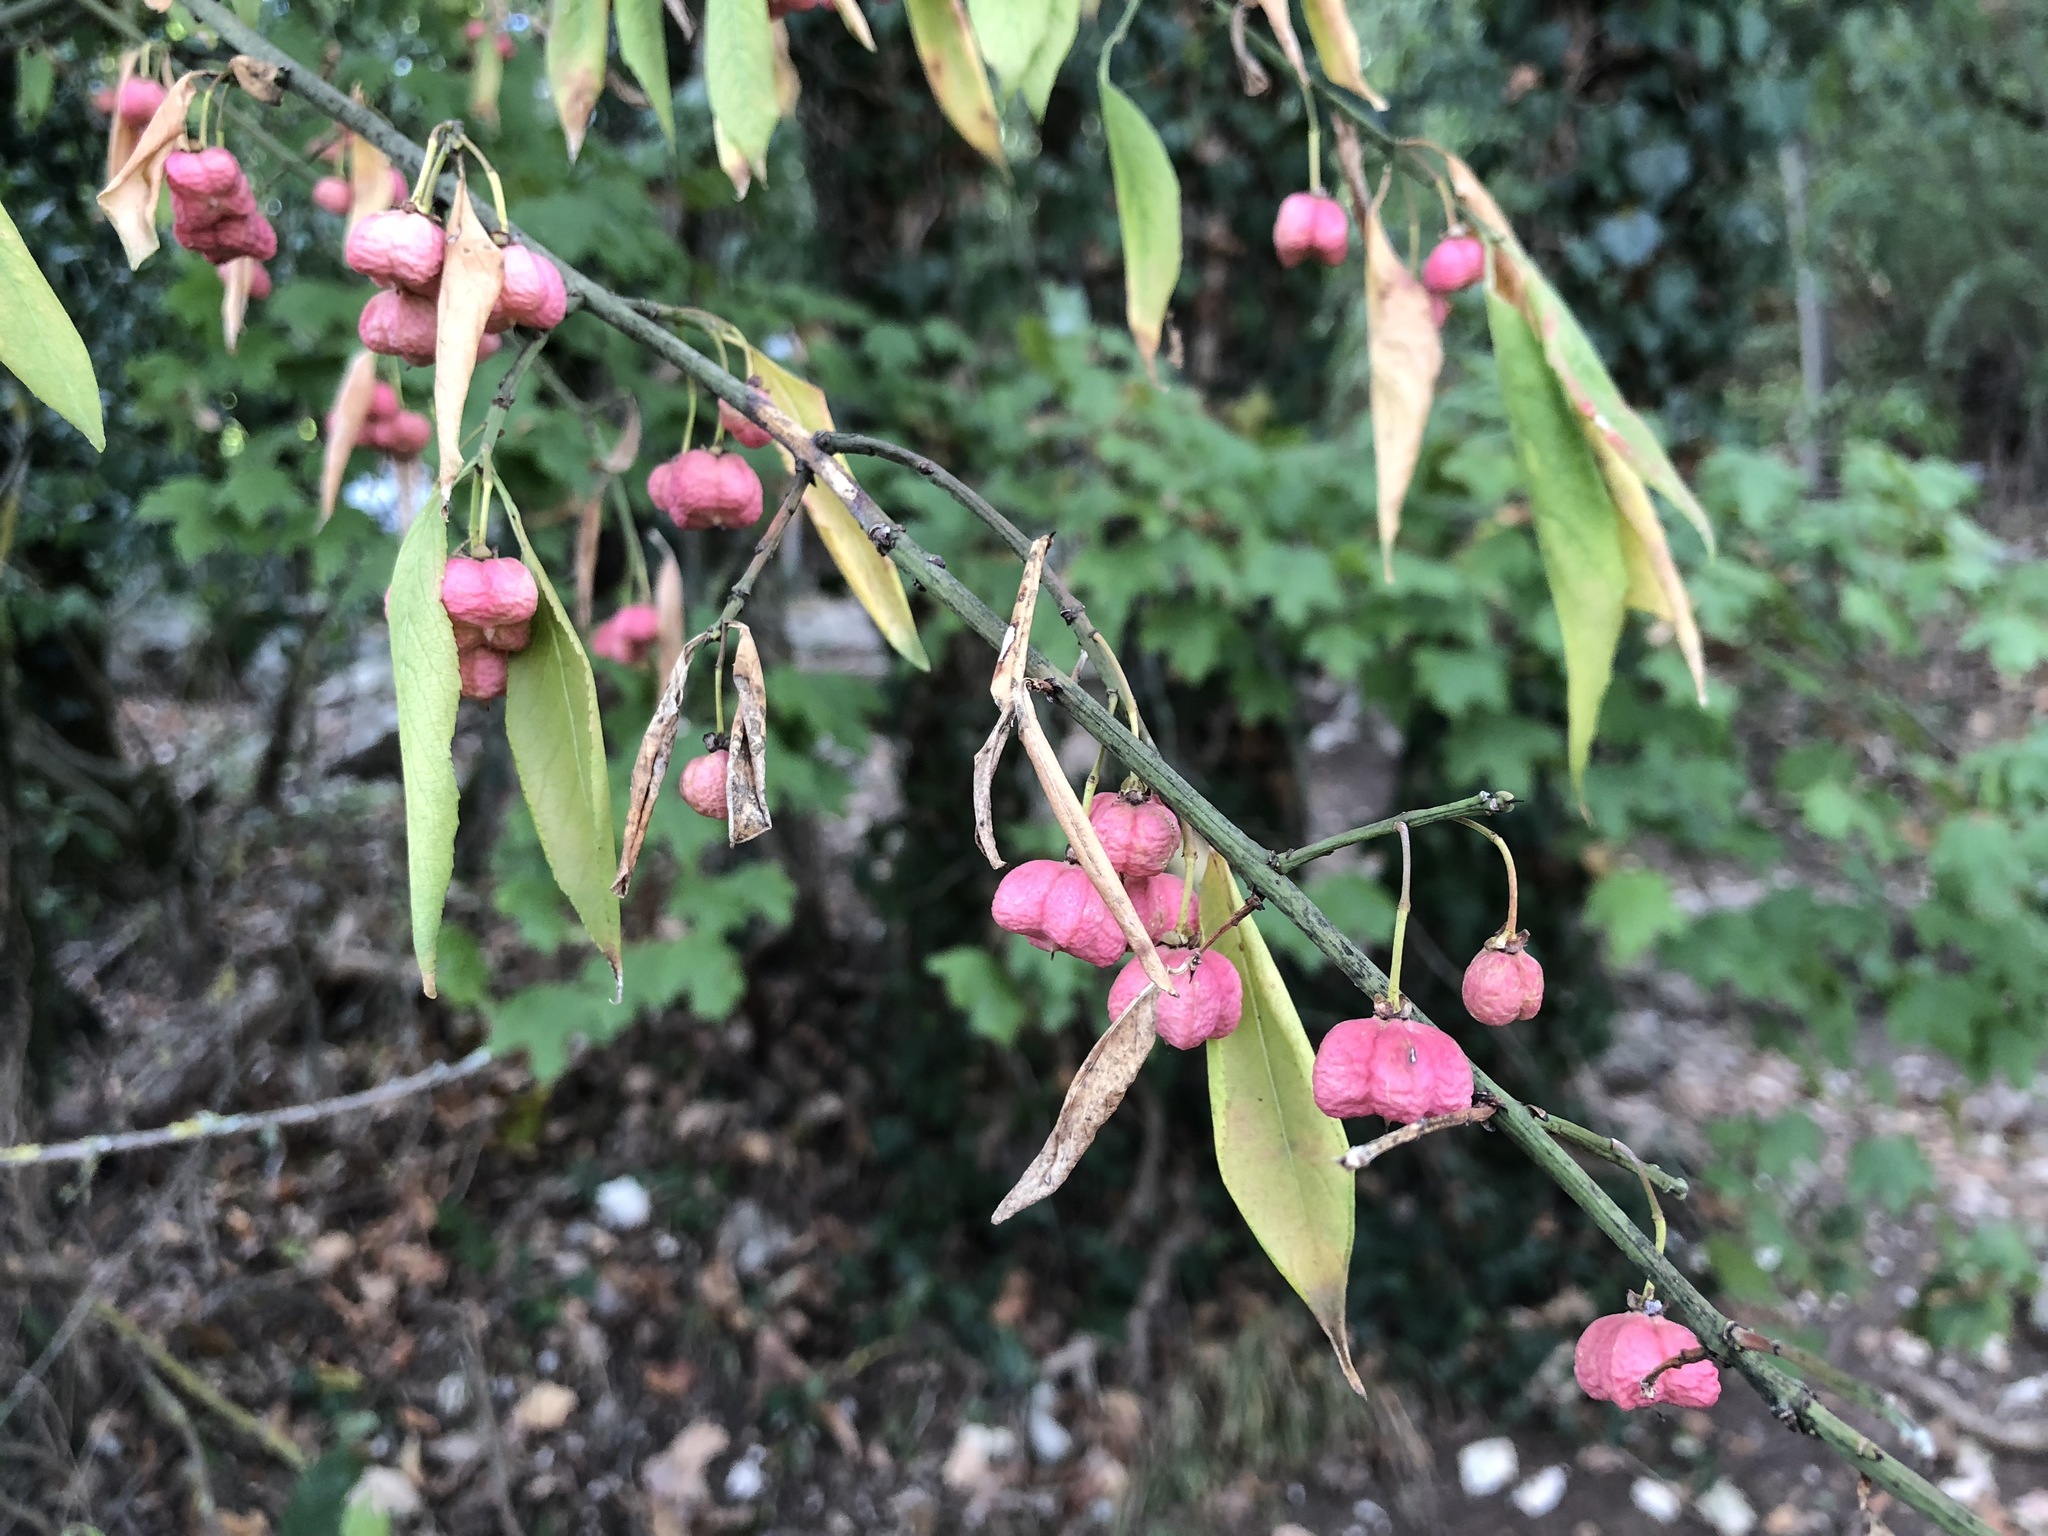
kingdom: Plantae
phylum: Tracheophyta
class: Magnoliopsida
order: Celastrales
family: Celastraceae
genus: Euonymus
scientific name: Euonymus europaeus
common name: Spindle
